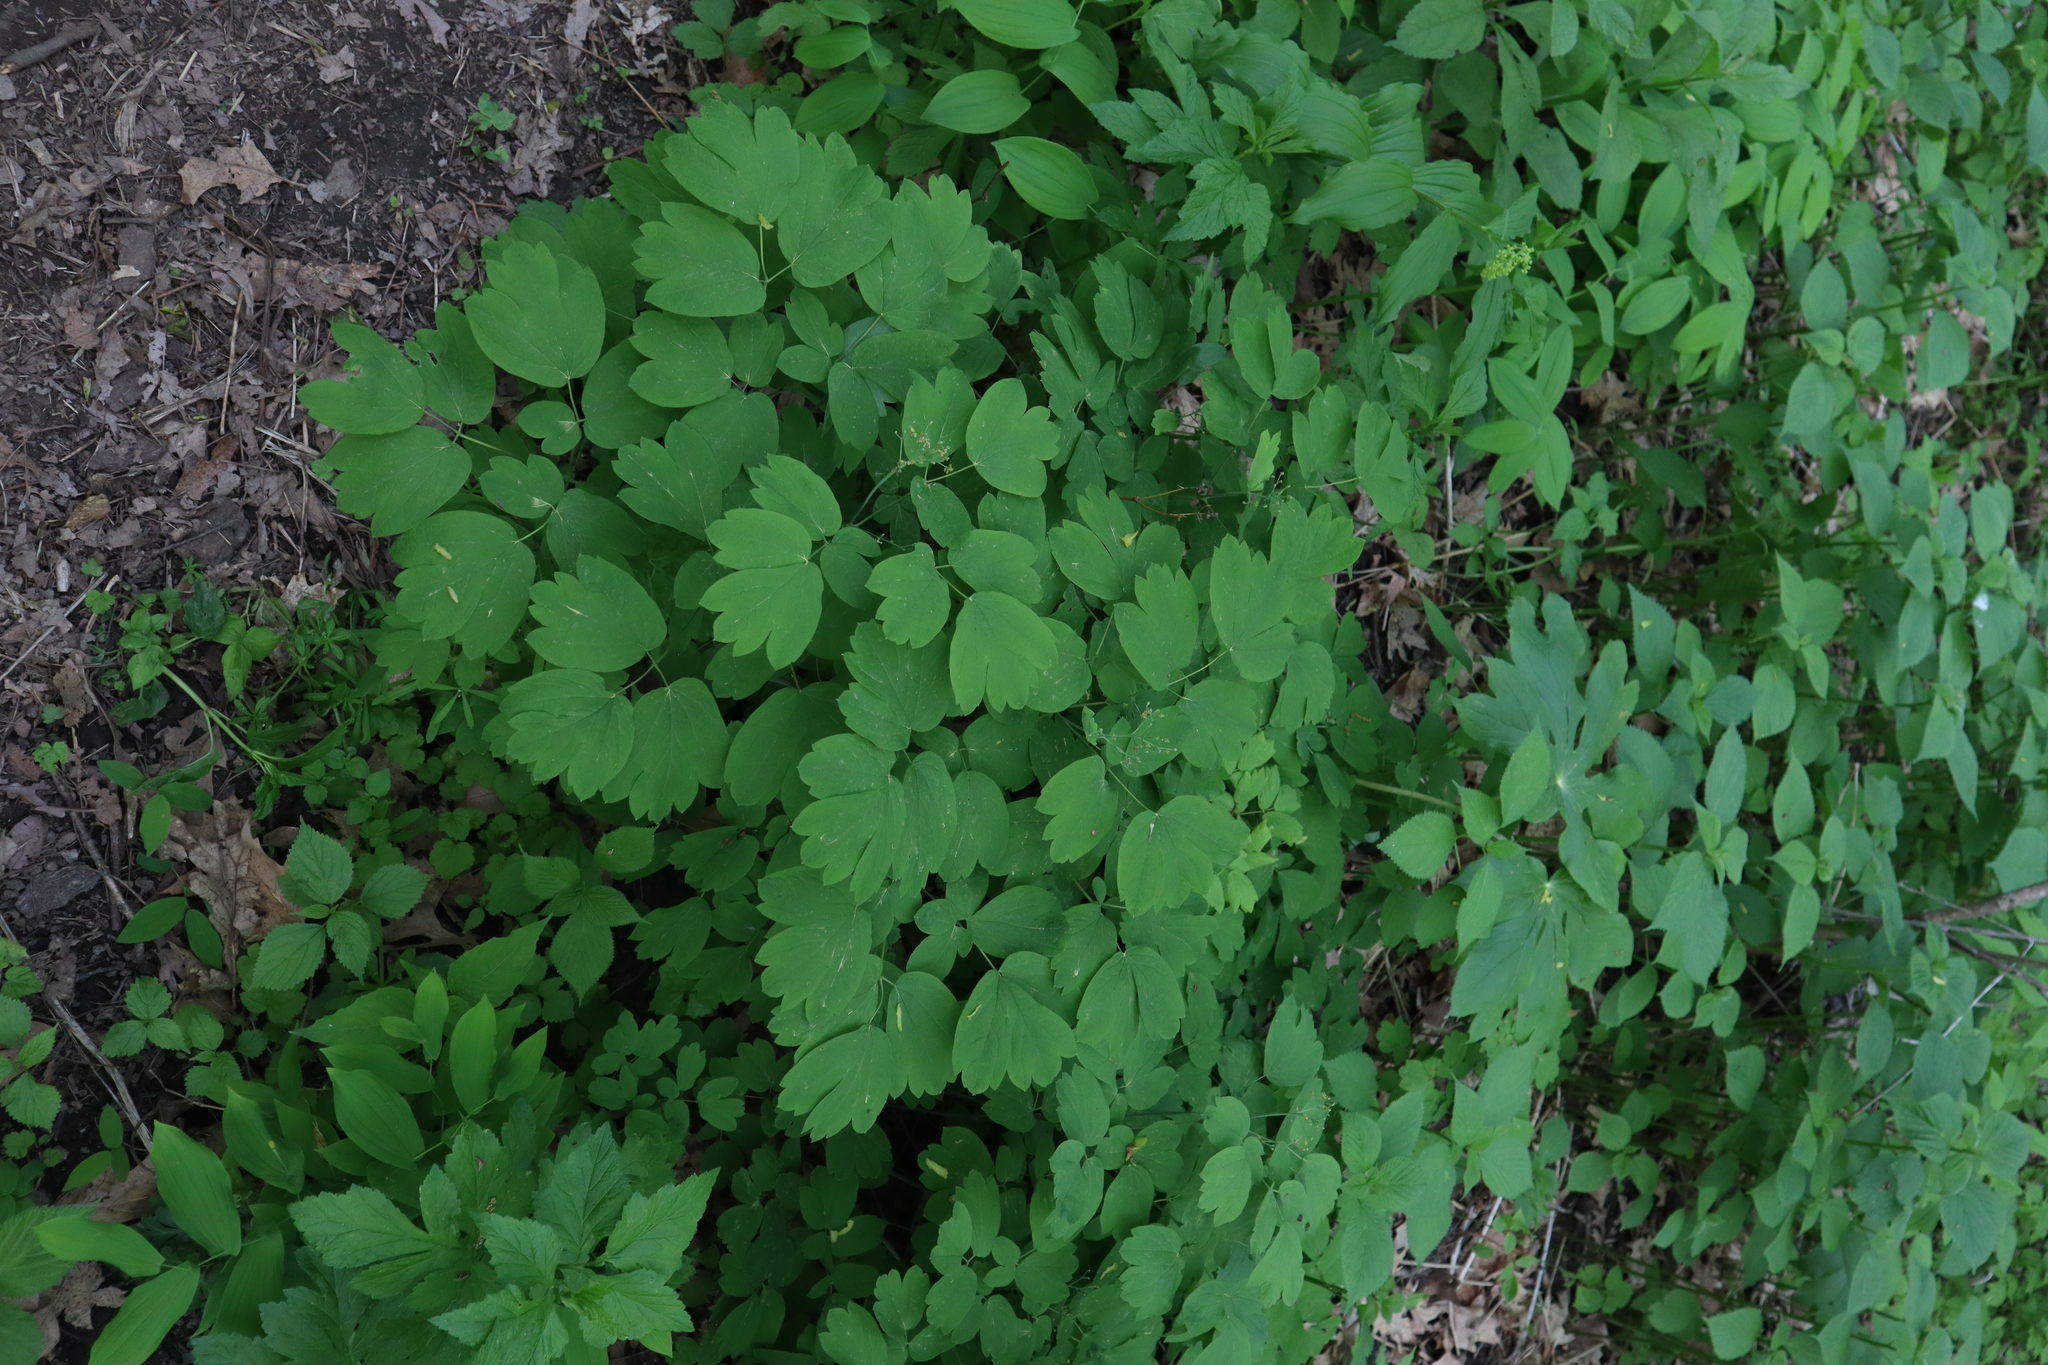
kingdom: Plantae
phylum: Tracheophyta
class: Magnoliopsida
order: Ranunculales
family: Berberidaceae
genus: Caulophyllum
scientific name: Caulophyllum thalictroides
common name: Blue cohosh
